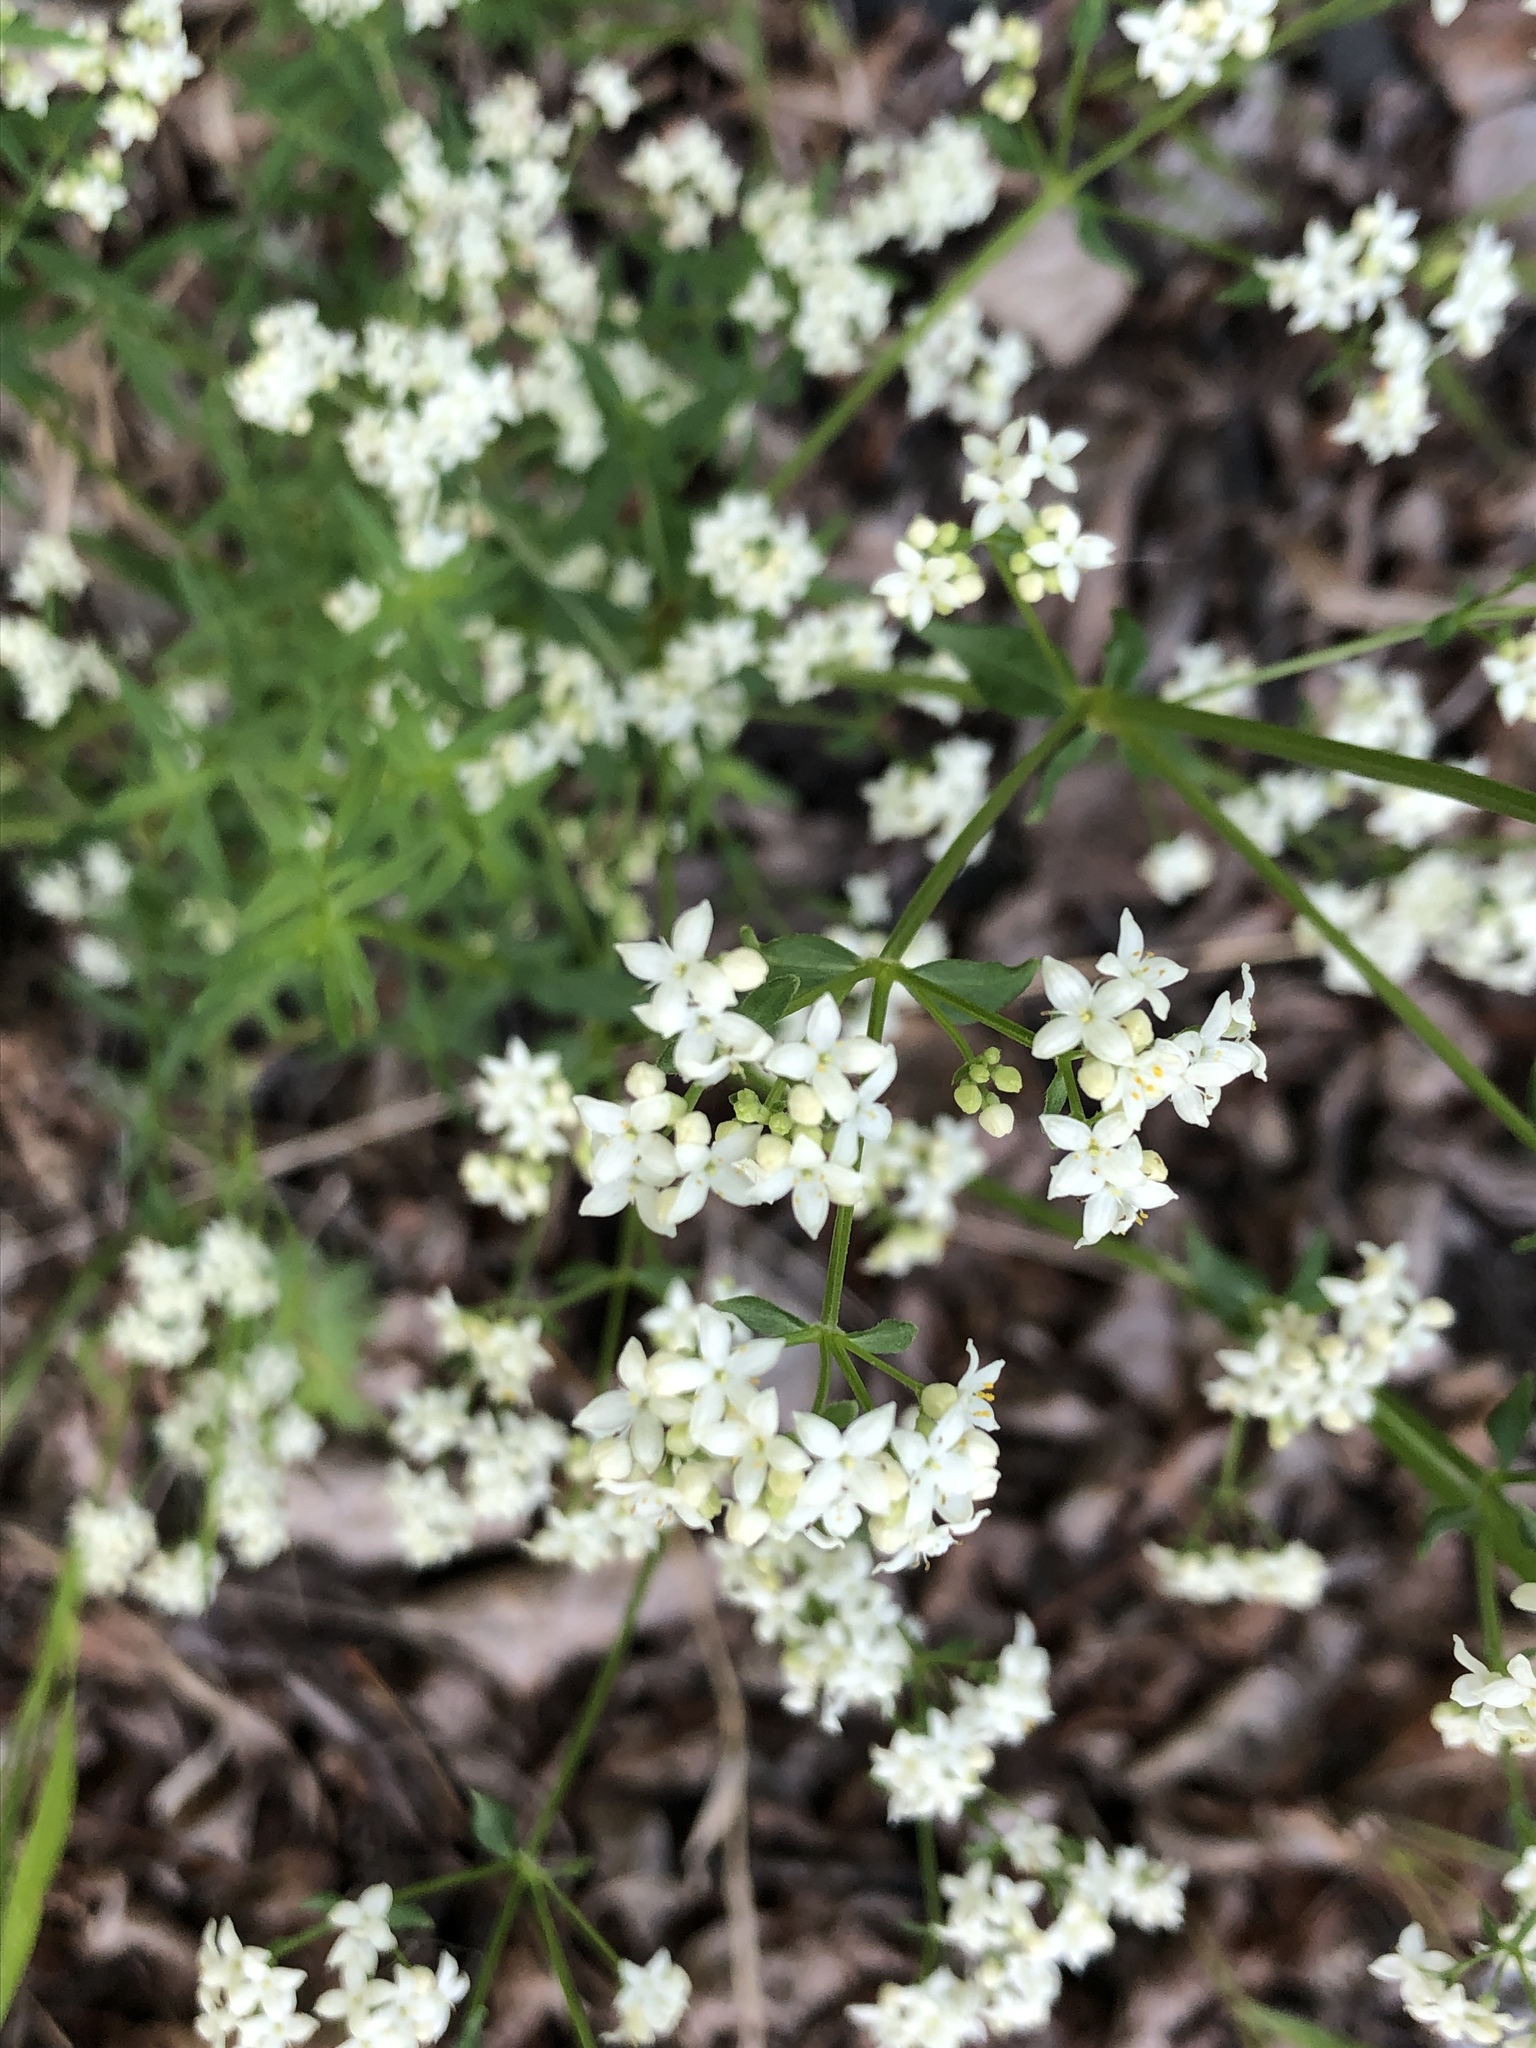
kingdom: Plantae
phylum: Tracheophyta
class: Magnoliopsida
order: Gentianales
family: Rubiaceae
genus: Galium
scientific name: Galium boreale
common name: Northern bedstraw
